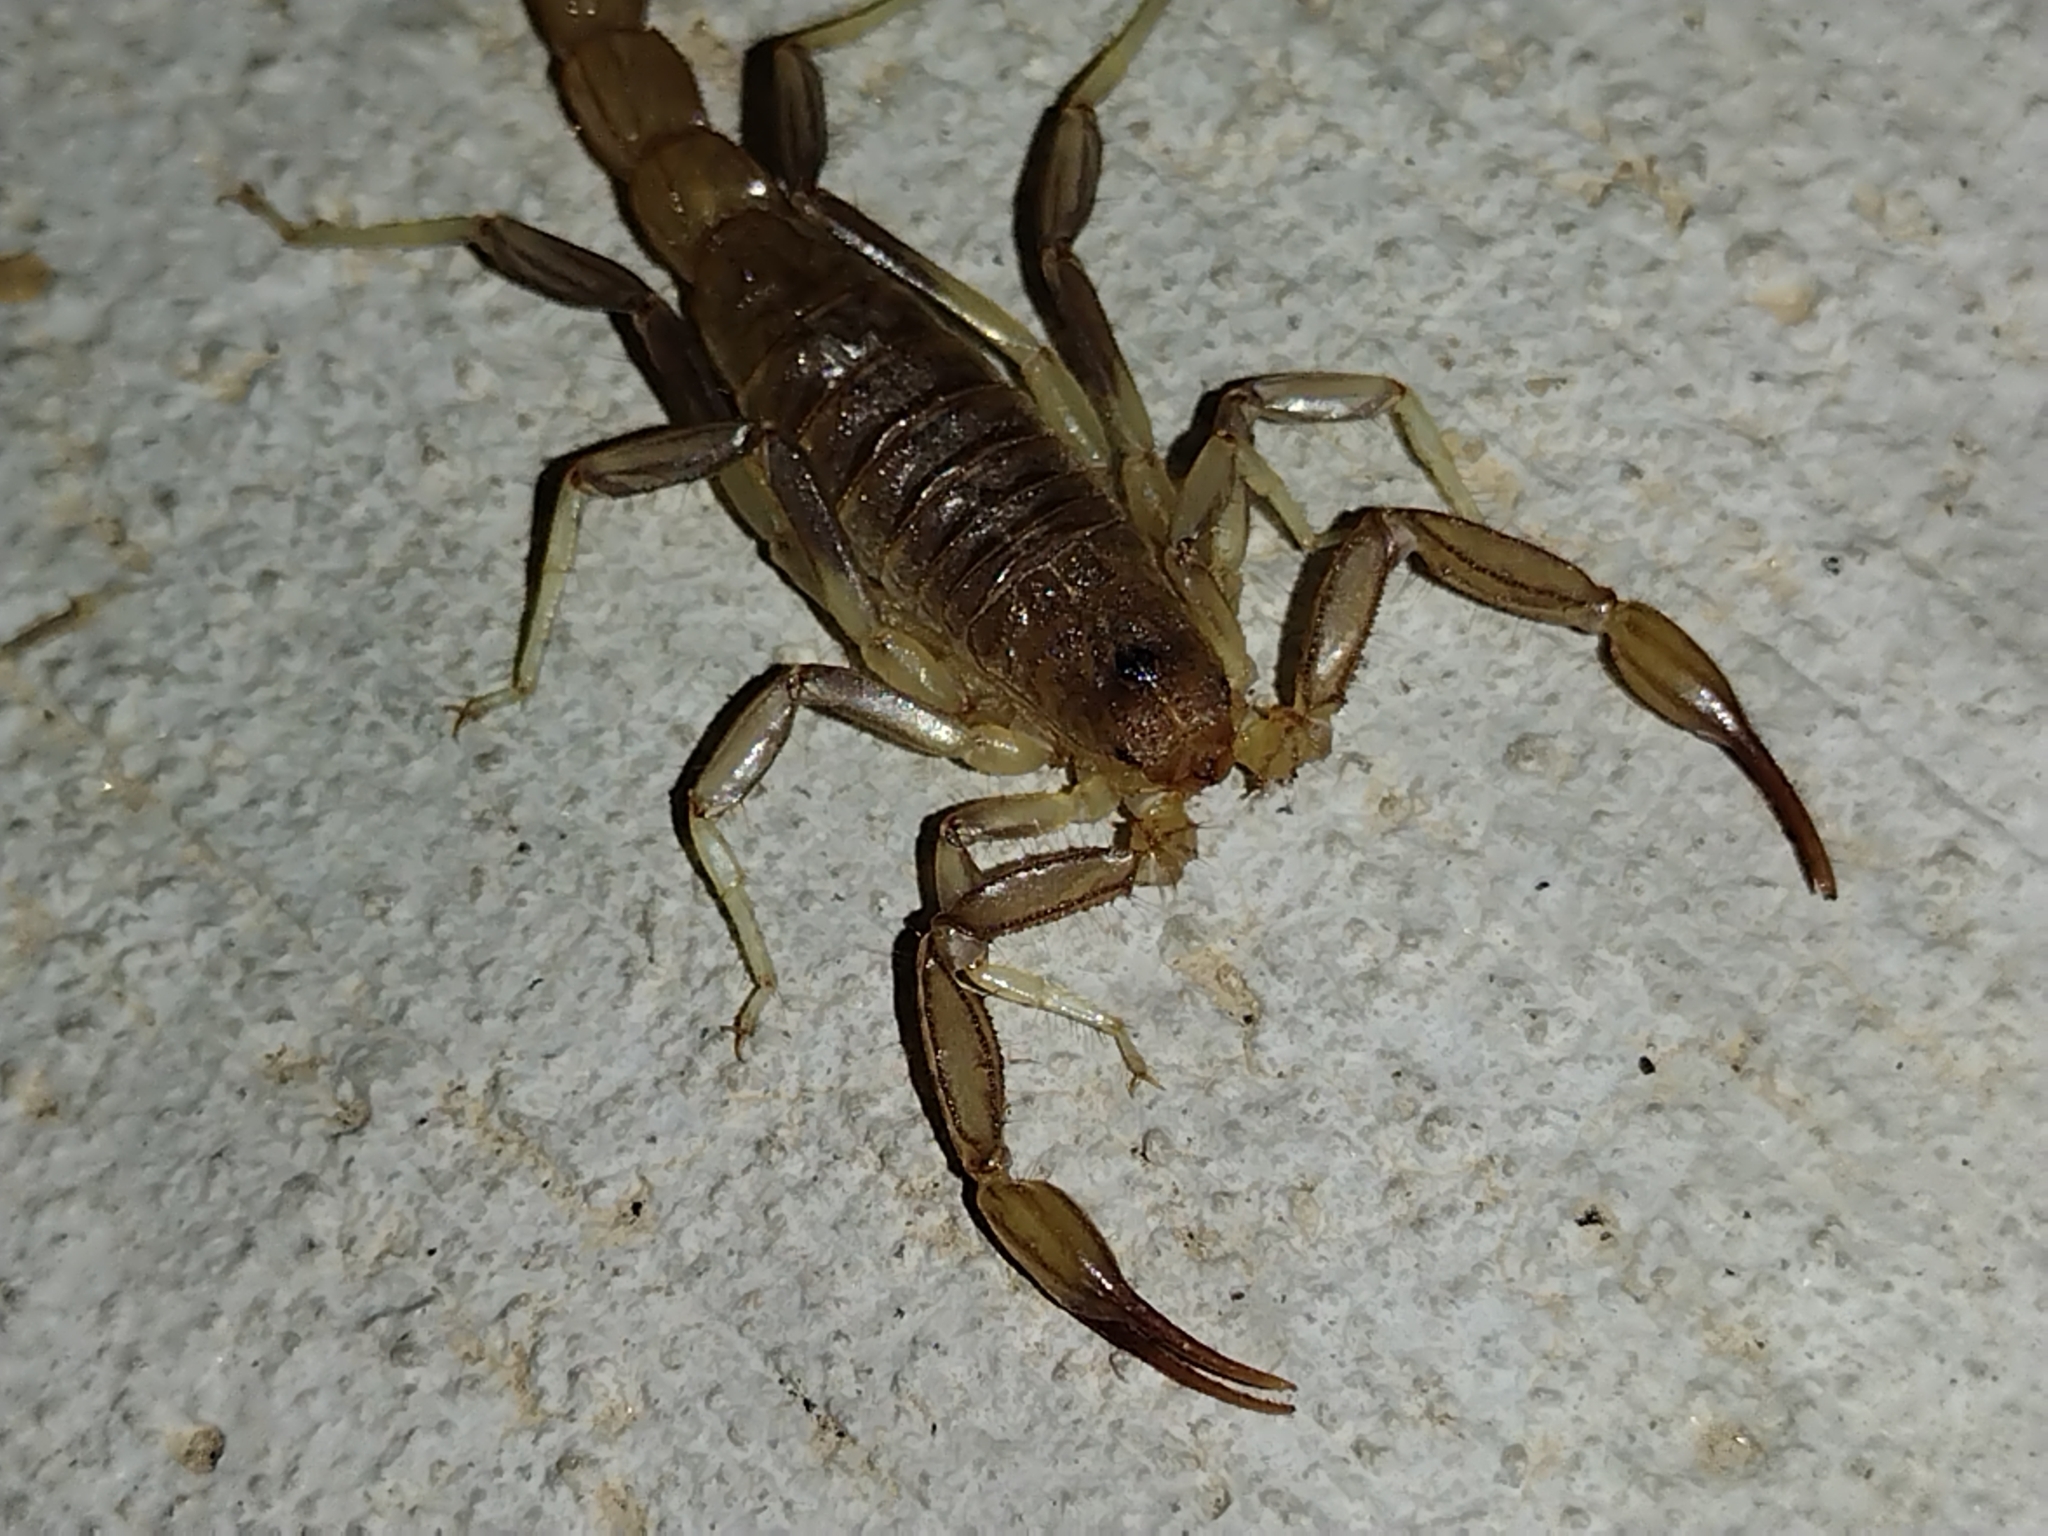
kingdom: Animalia
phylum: Arthropoda
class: Arachnida
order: Scorpiones
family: Vaejovidae
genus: Paravaejovis
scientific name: Paravaejovis puritanus
